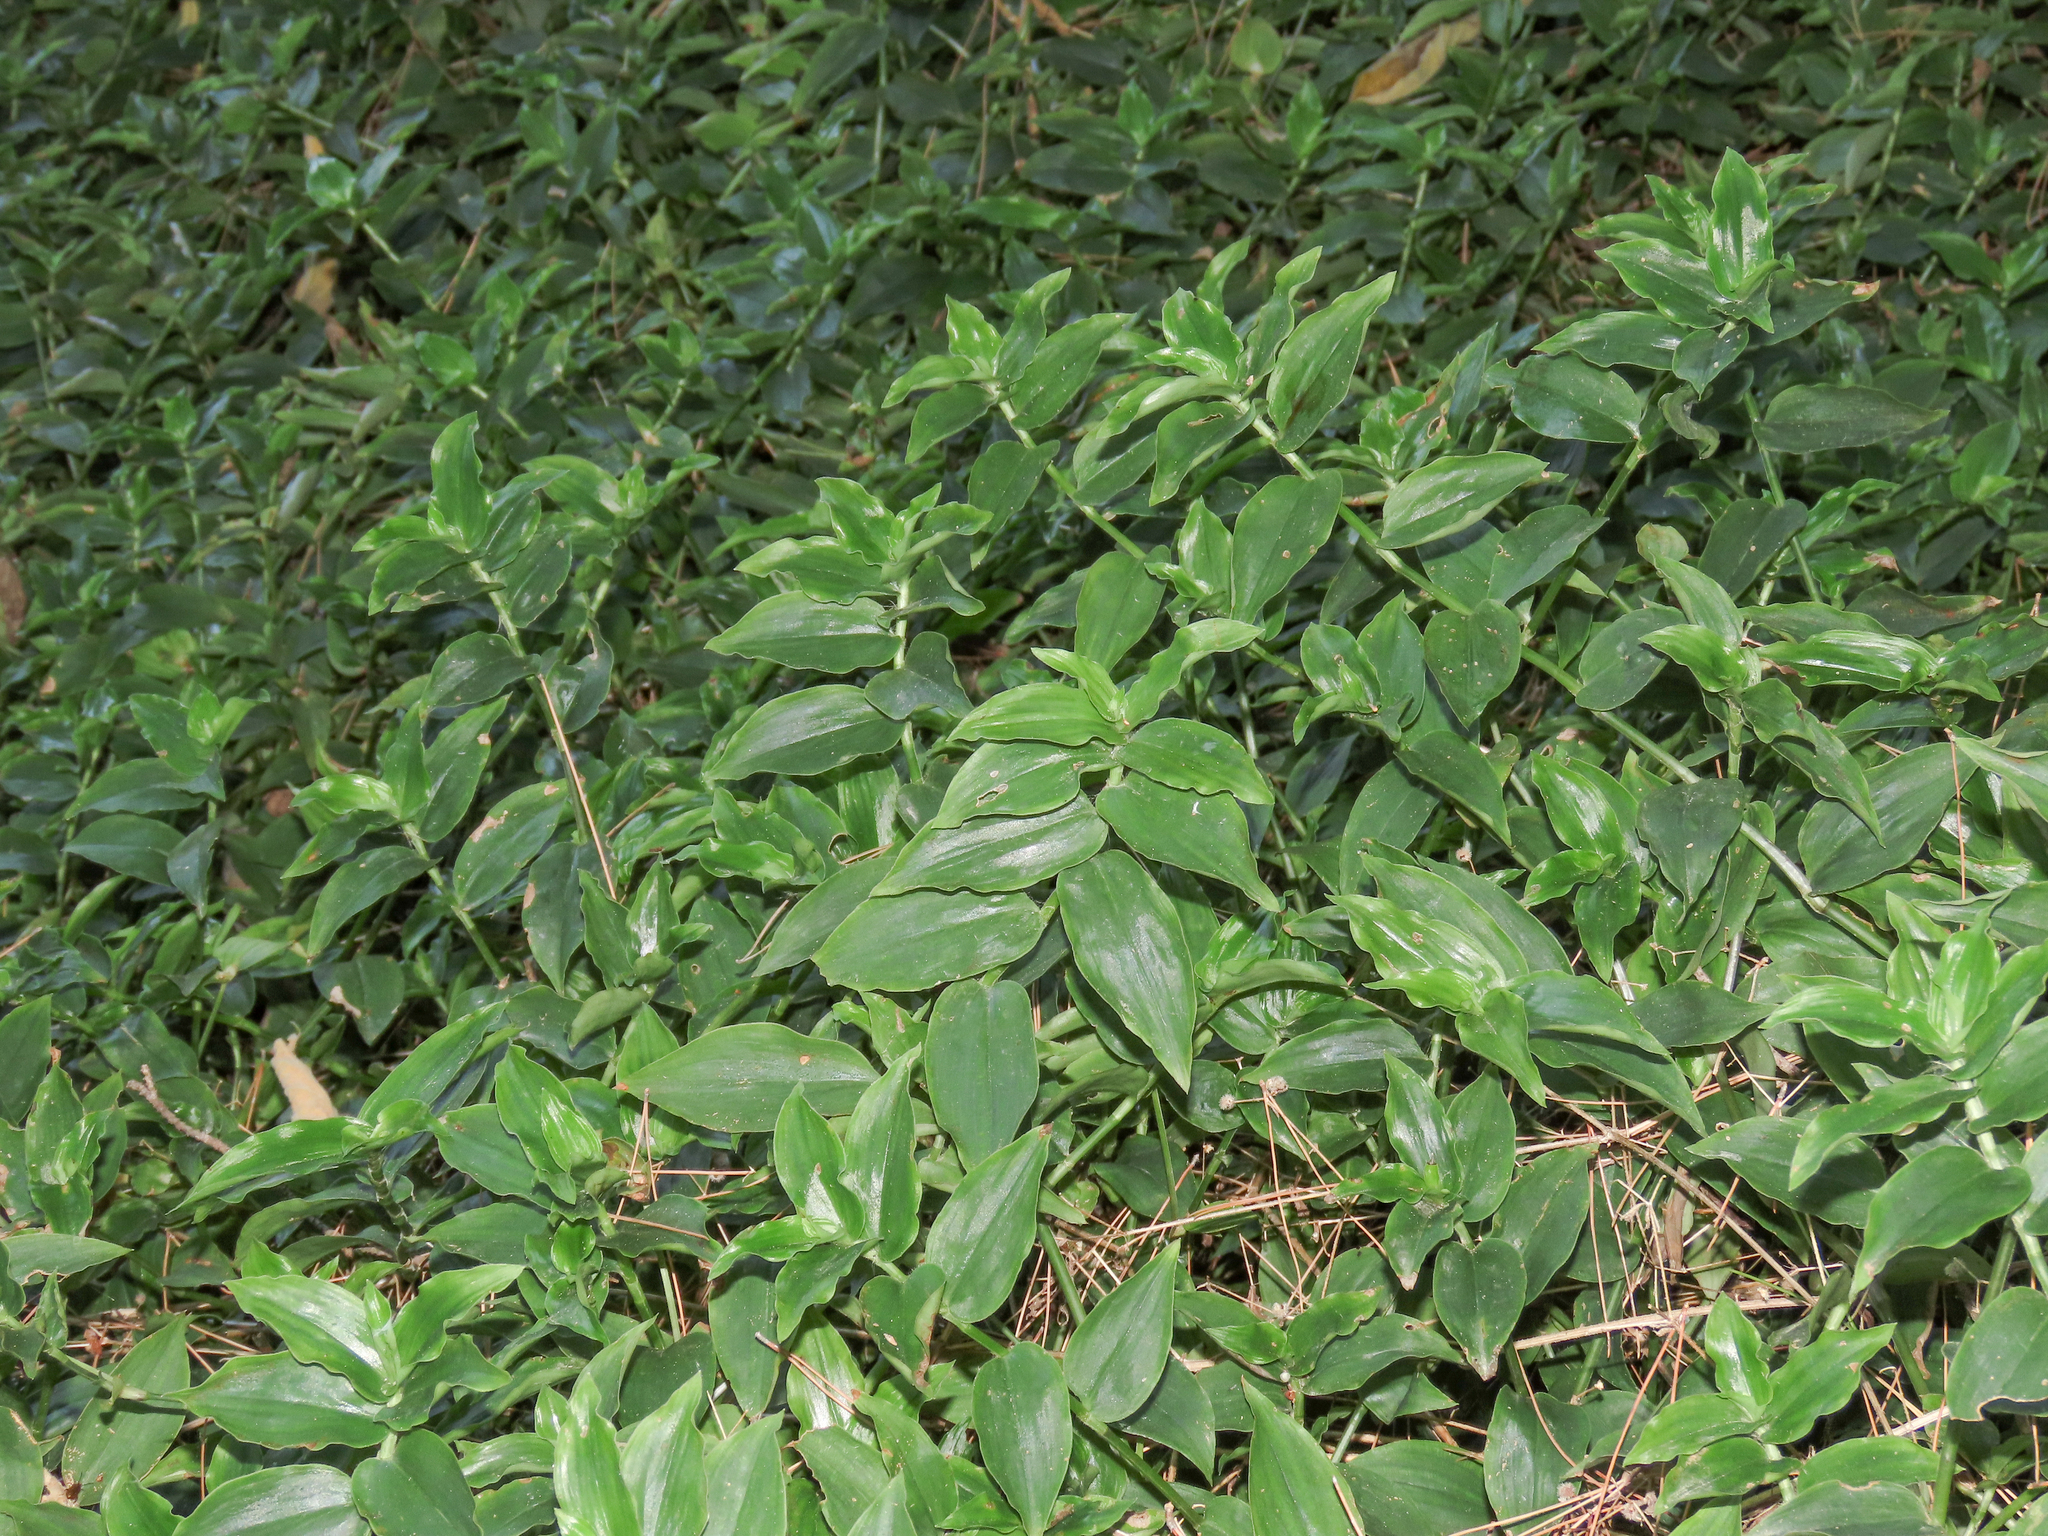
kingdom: Plantae
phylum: Tracheophyta
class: Liliopsida
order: Commelinales
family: Commelinaceae
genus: Tradescantia
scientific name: Tradescantia fluminensis
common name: Wandering-jew
